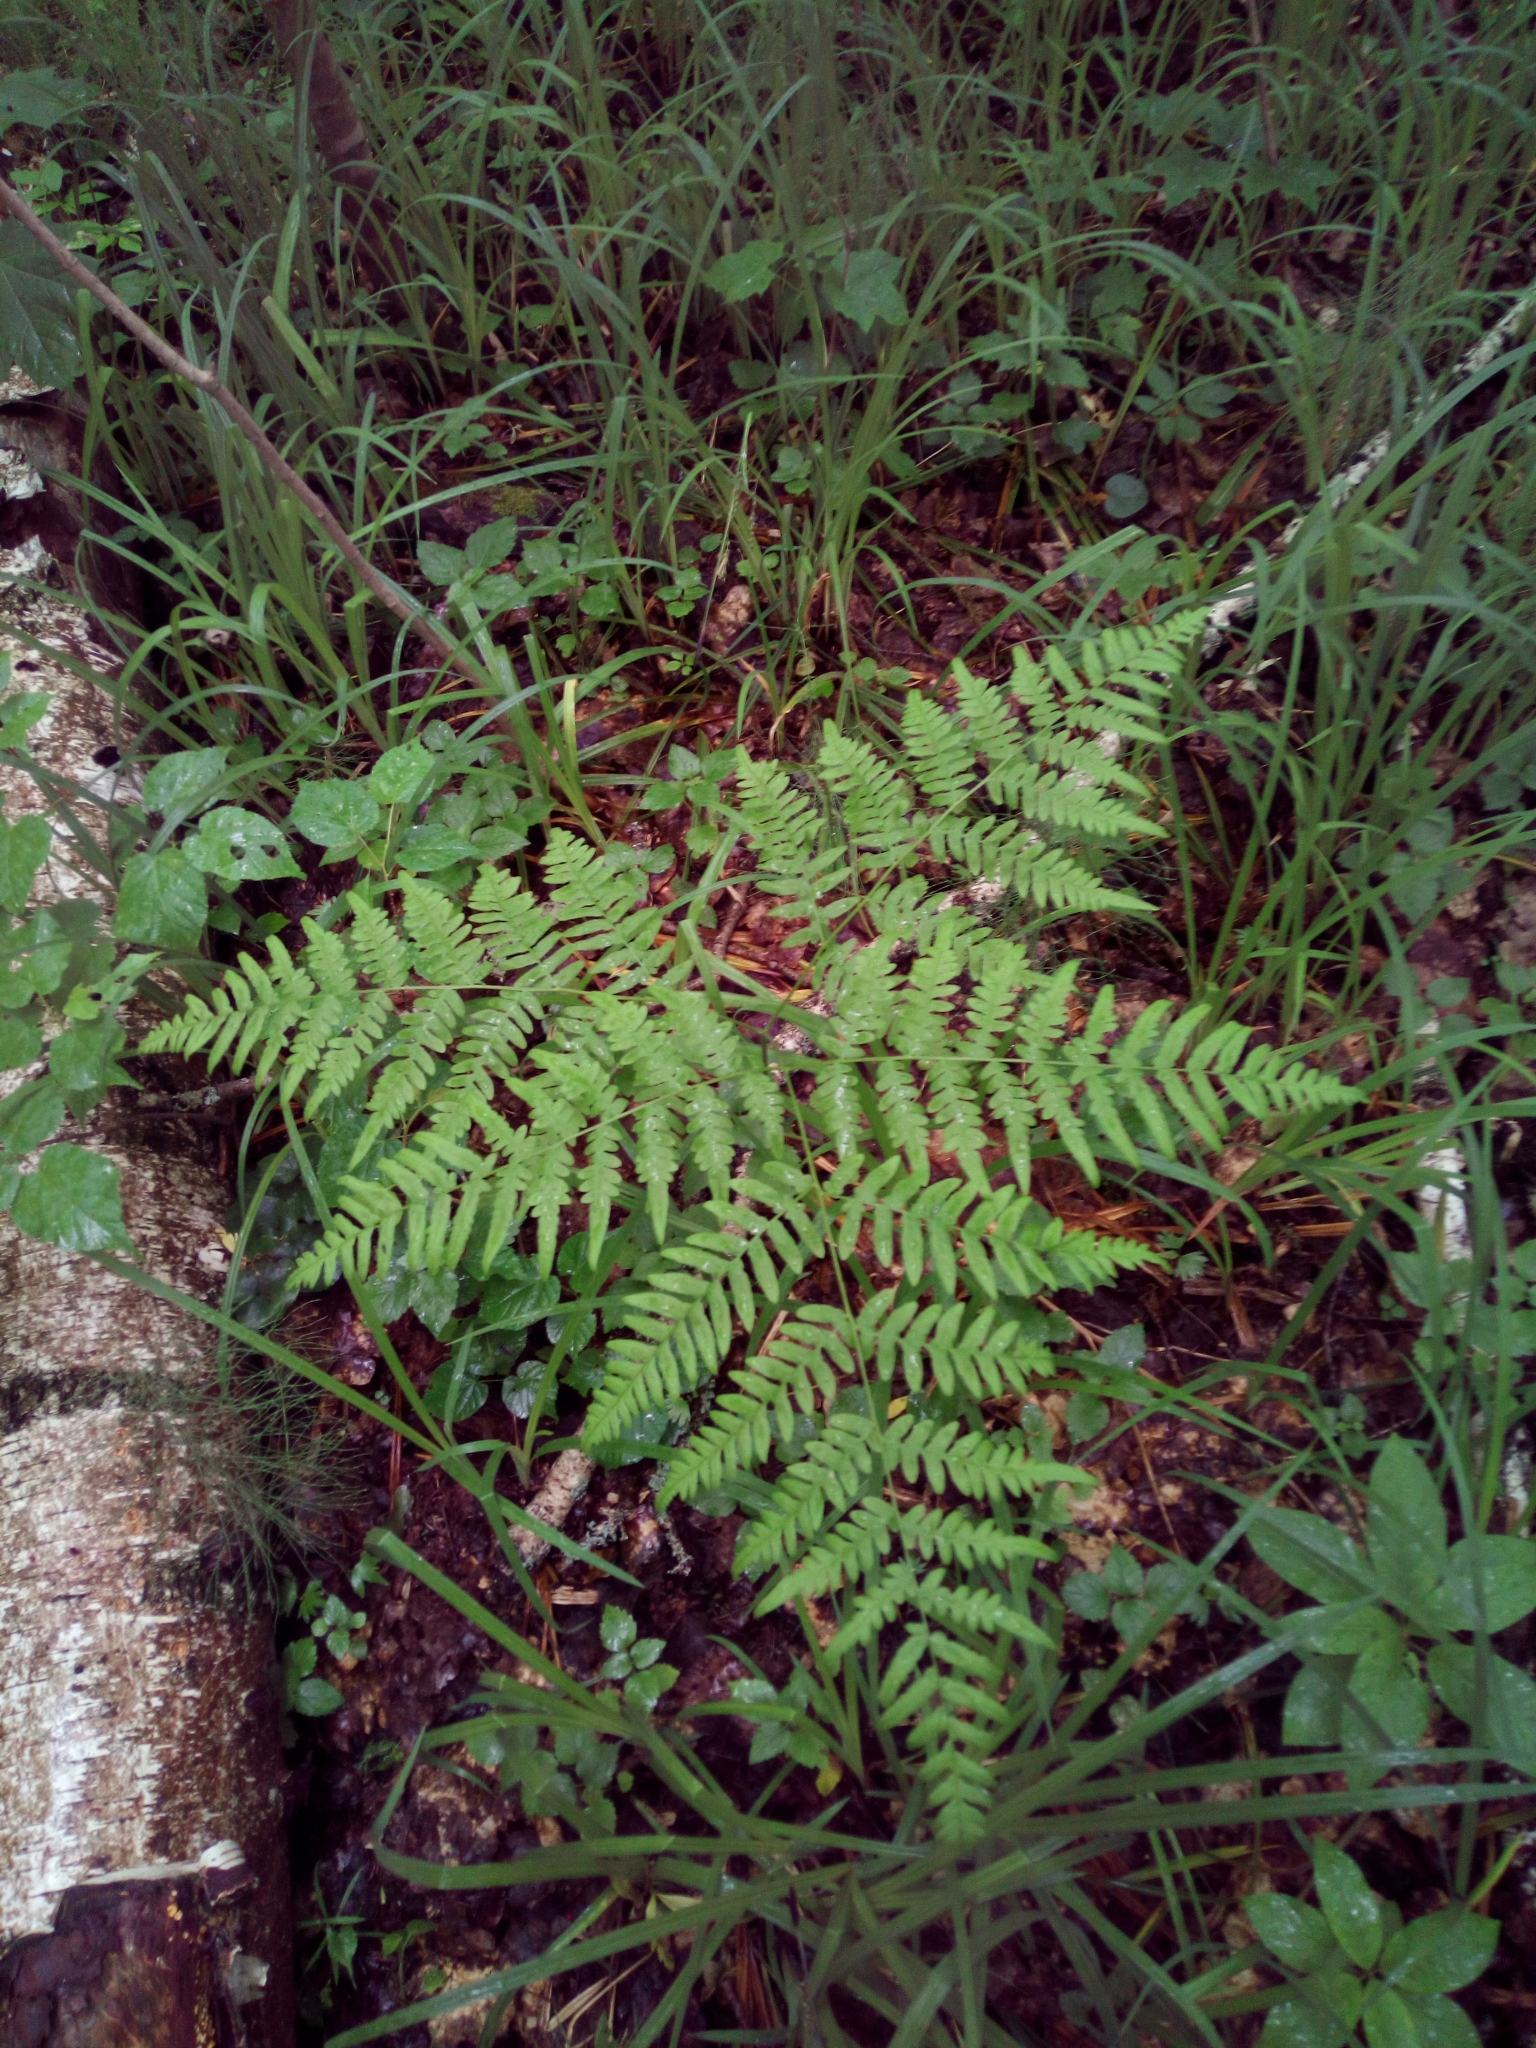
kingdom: Plantae
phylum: Tracheophyta
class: Polypodiopsida
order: Polypodiales
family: Dennstaedtiaceae
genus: Pteridium
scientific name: Pteridium aquilinum
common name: Bracken
